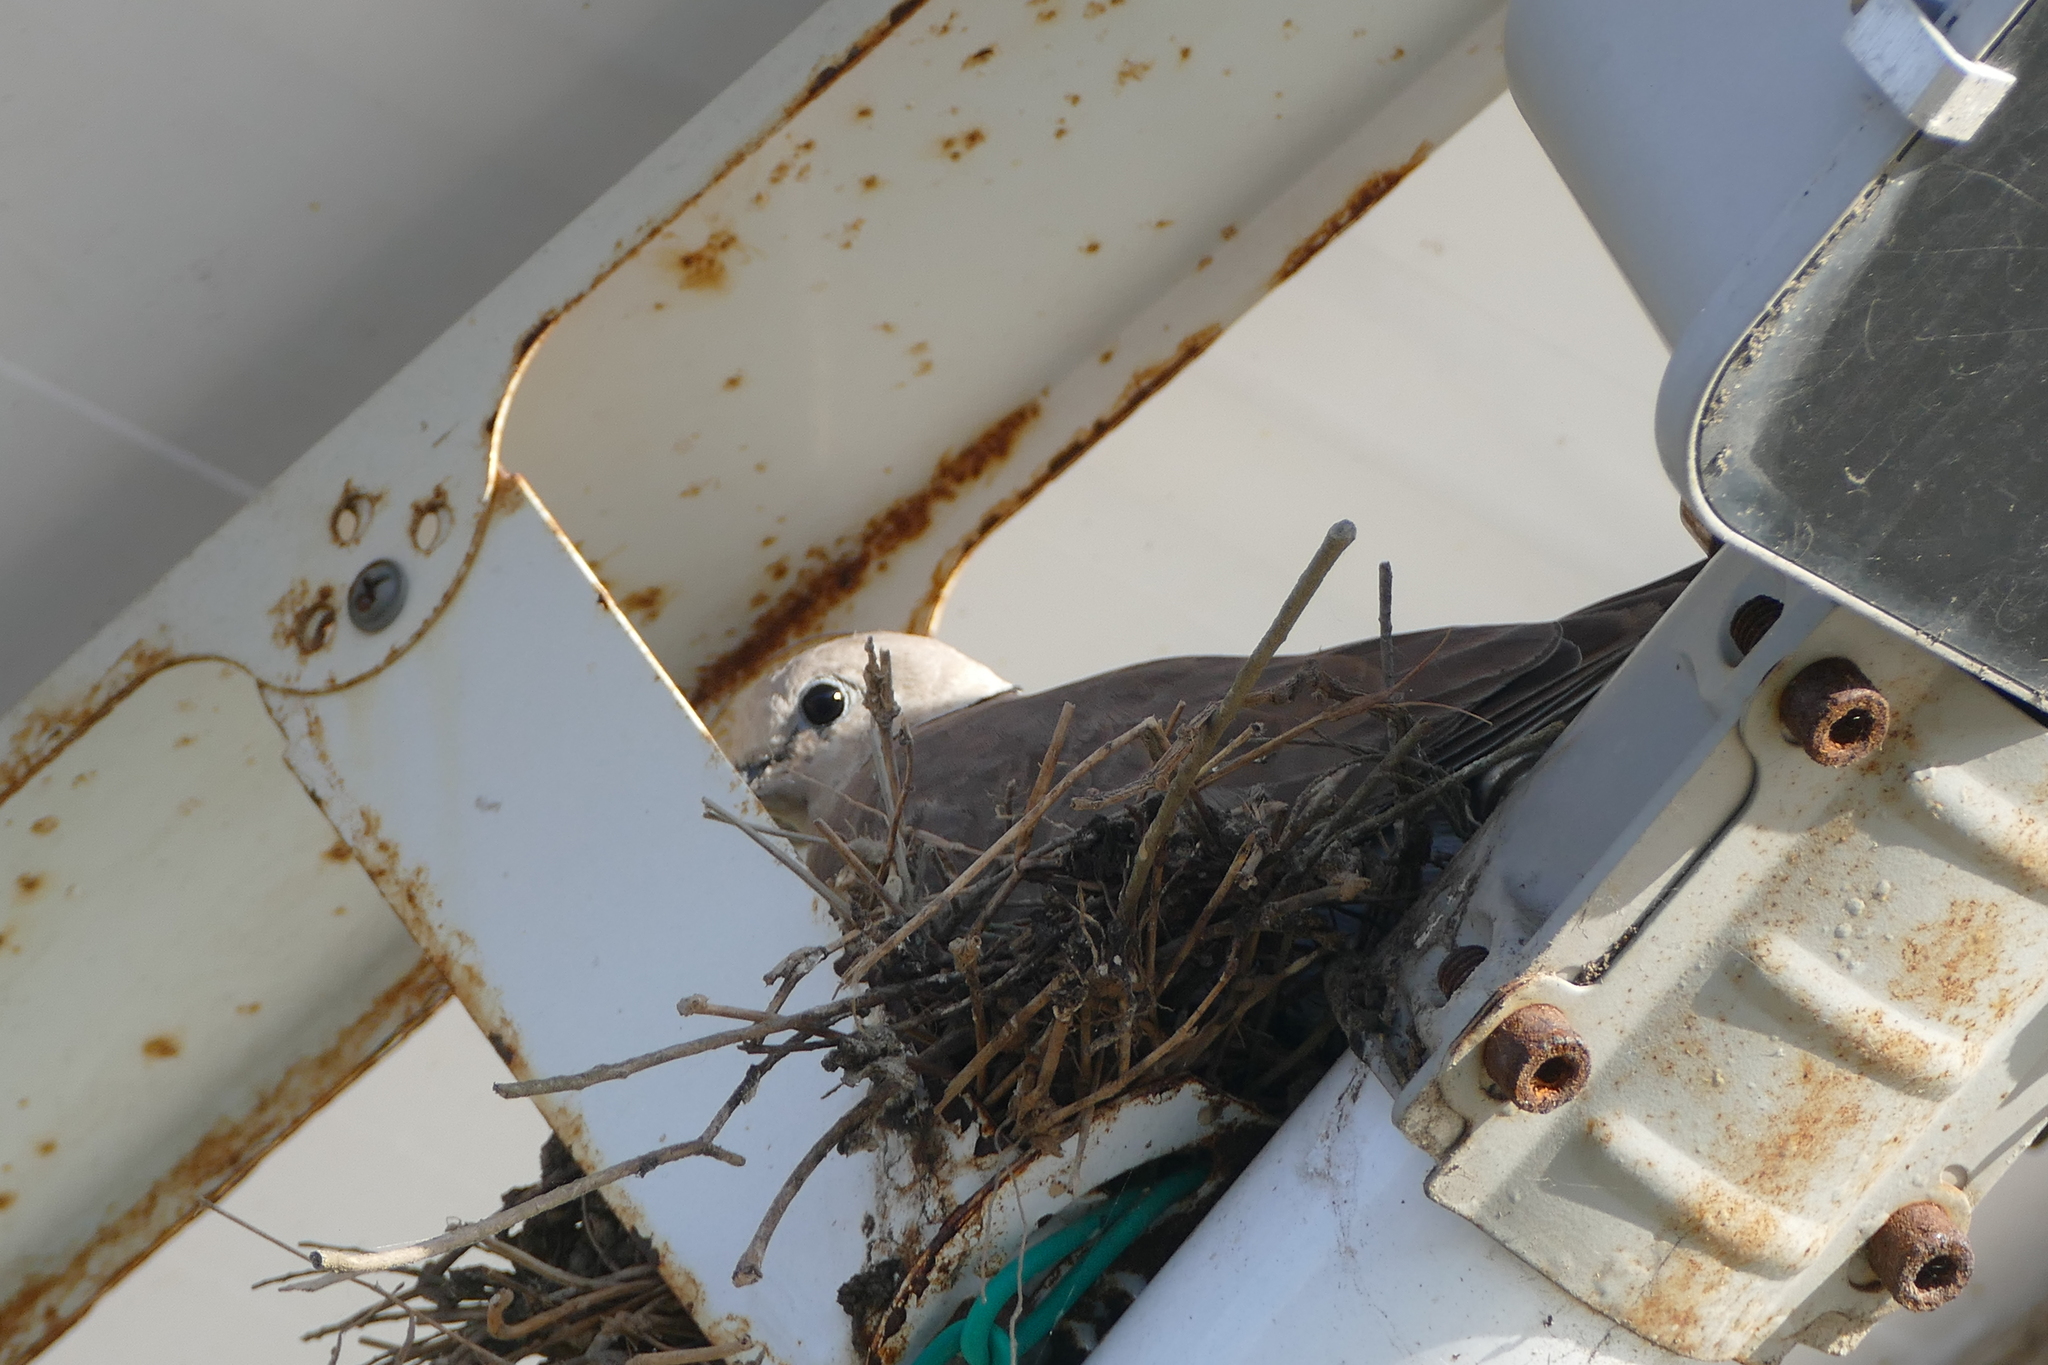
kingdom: Animalia
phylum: Chordata
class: Aves
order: Columbiformes
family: Columbidae
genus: Streptopelia
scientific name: Streptopelia tranquebarica
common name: Red turtle dove
